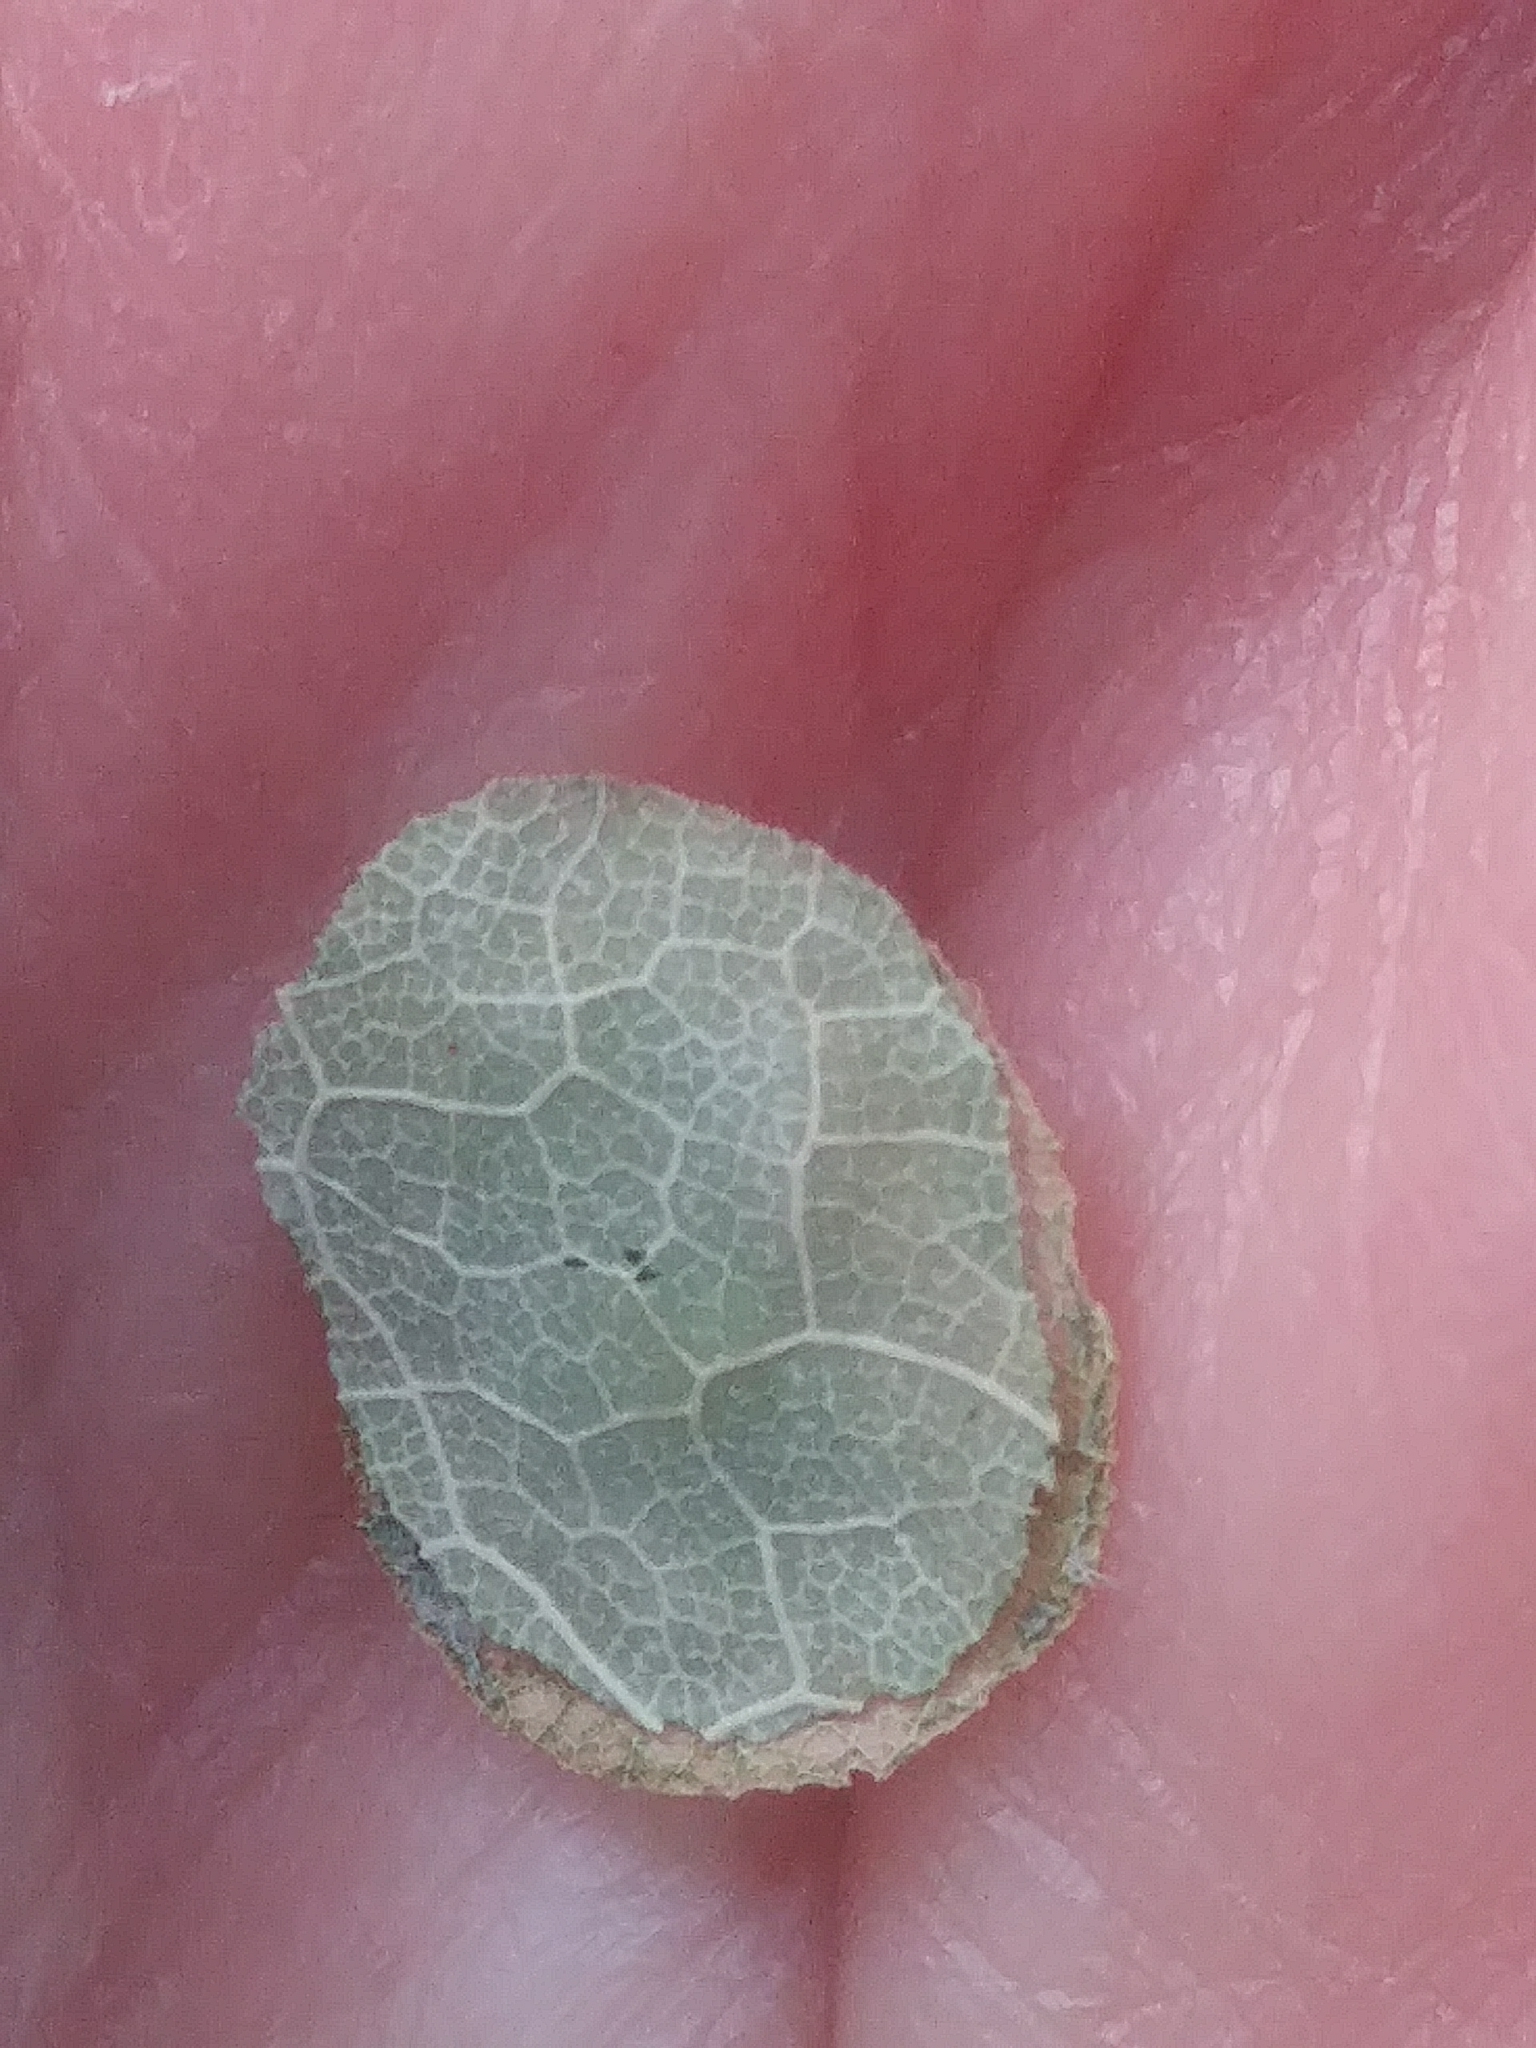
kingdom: Animalia
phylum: Arthropoda
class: Insecta
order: Lepidoptera
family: Incurvariidae
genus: Paraclemensia
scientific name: Paraclemensia acerifoliella
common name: Maple leafcutter
